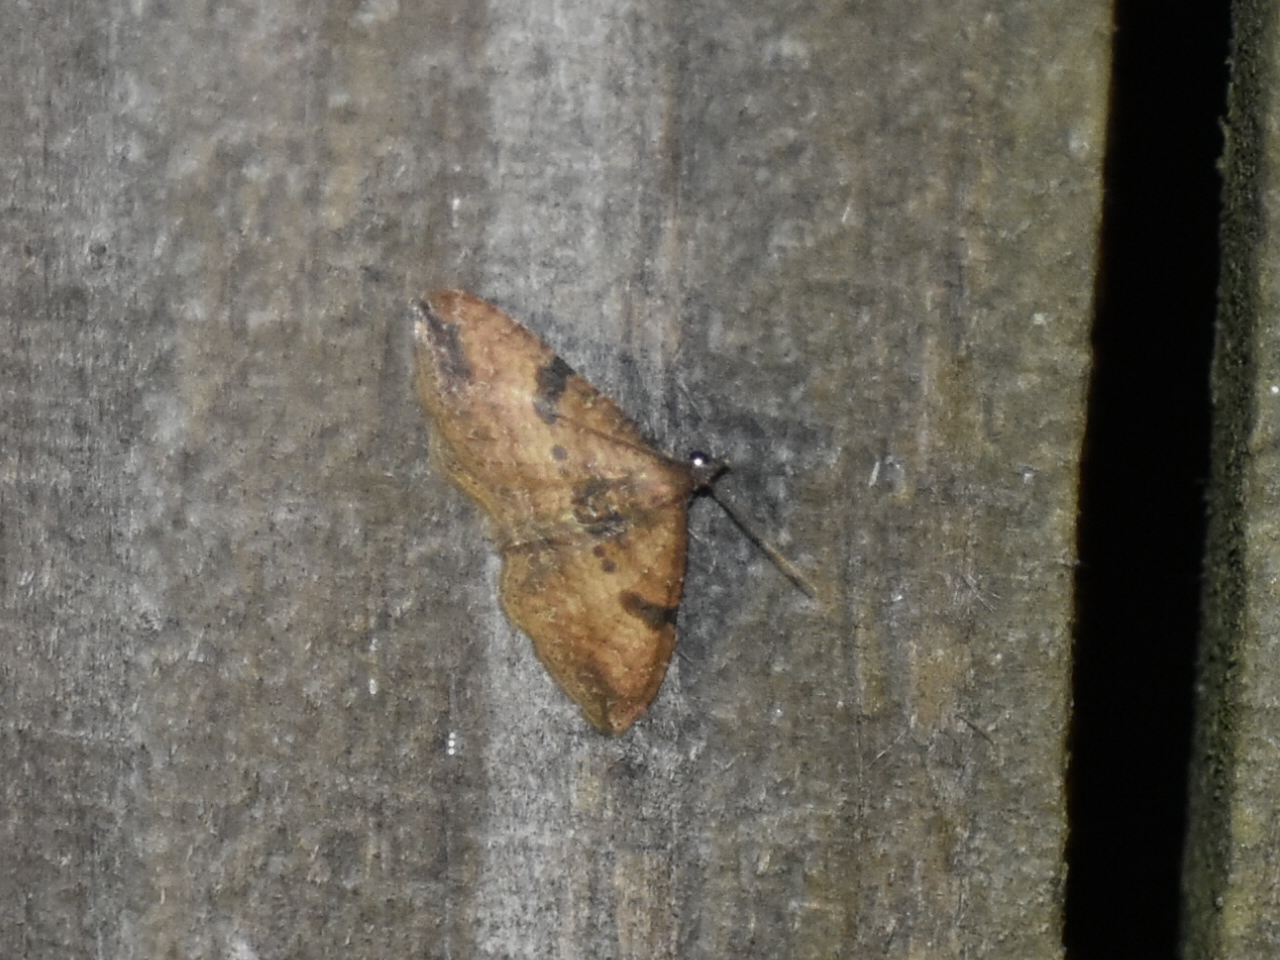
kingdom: Animalia
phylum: Arthropoda
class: Insecta
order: Lepidoptera
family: Geometridae
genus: Orthonama
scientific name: Orthonama obstipata
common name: The gem
